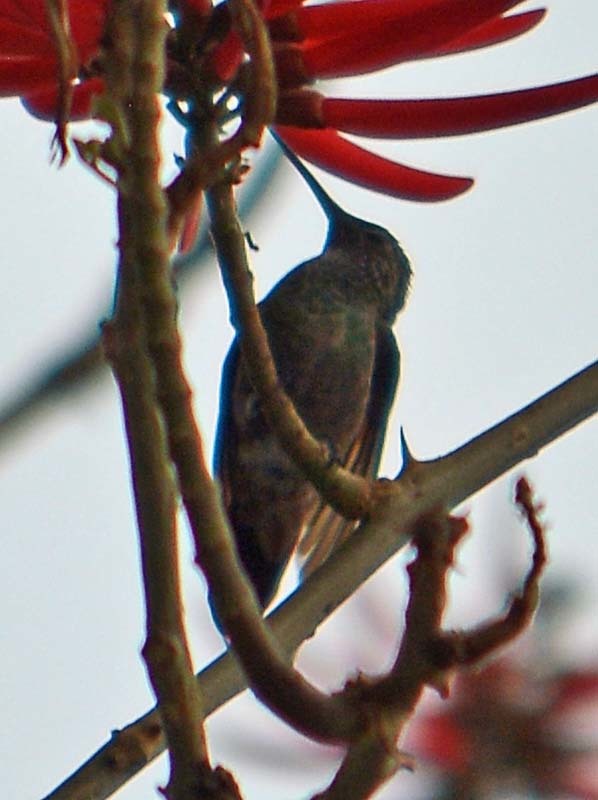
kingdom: Animalia
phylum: Chordata
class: Aves
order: Apodiformes
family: Trochilidae
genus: Saucerottia
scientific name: Saucerottia beryllina
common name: Berylline hummingbird
